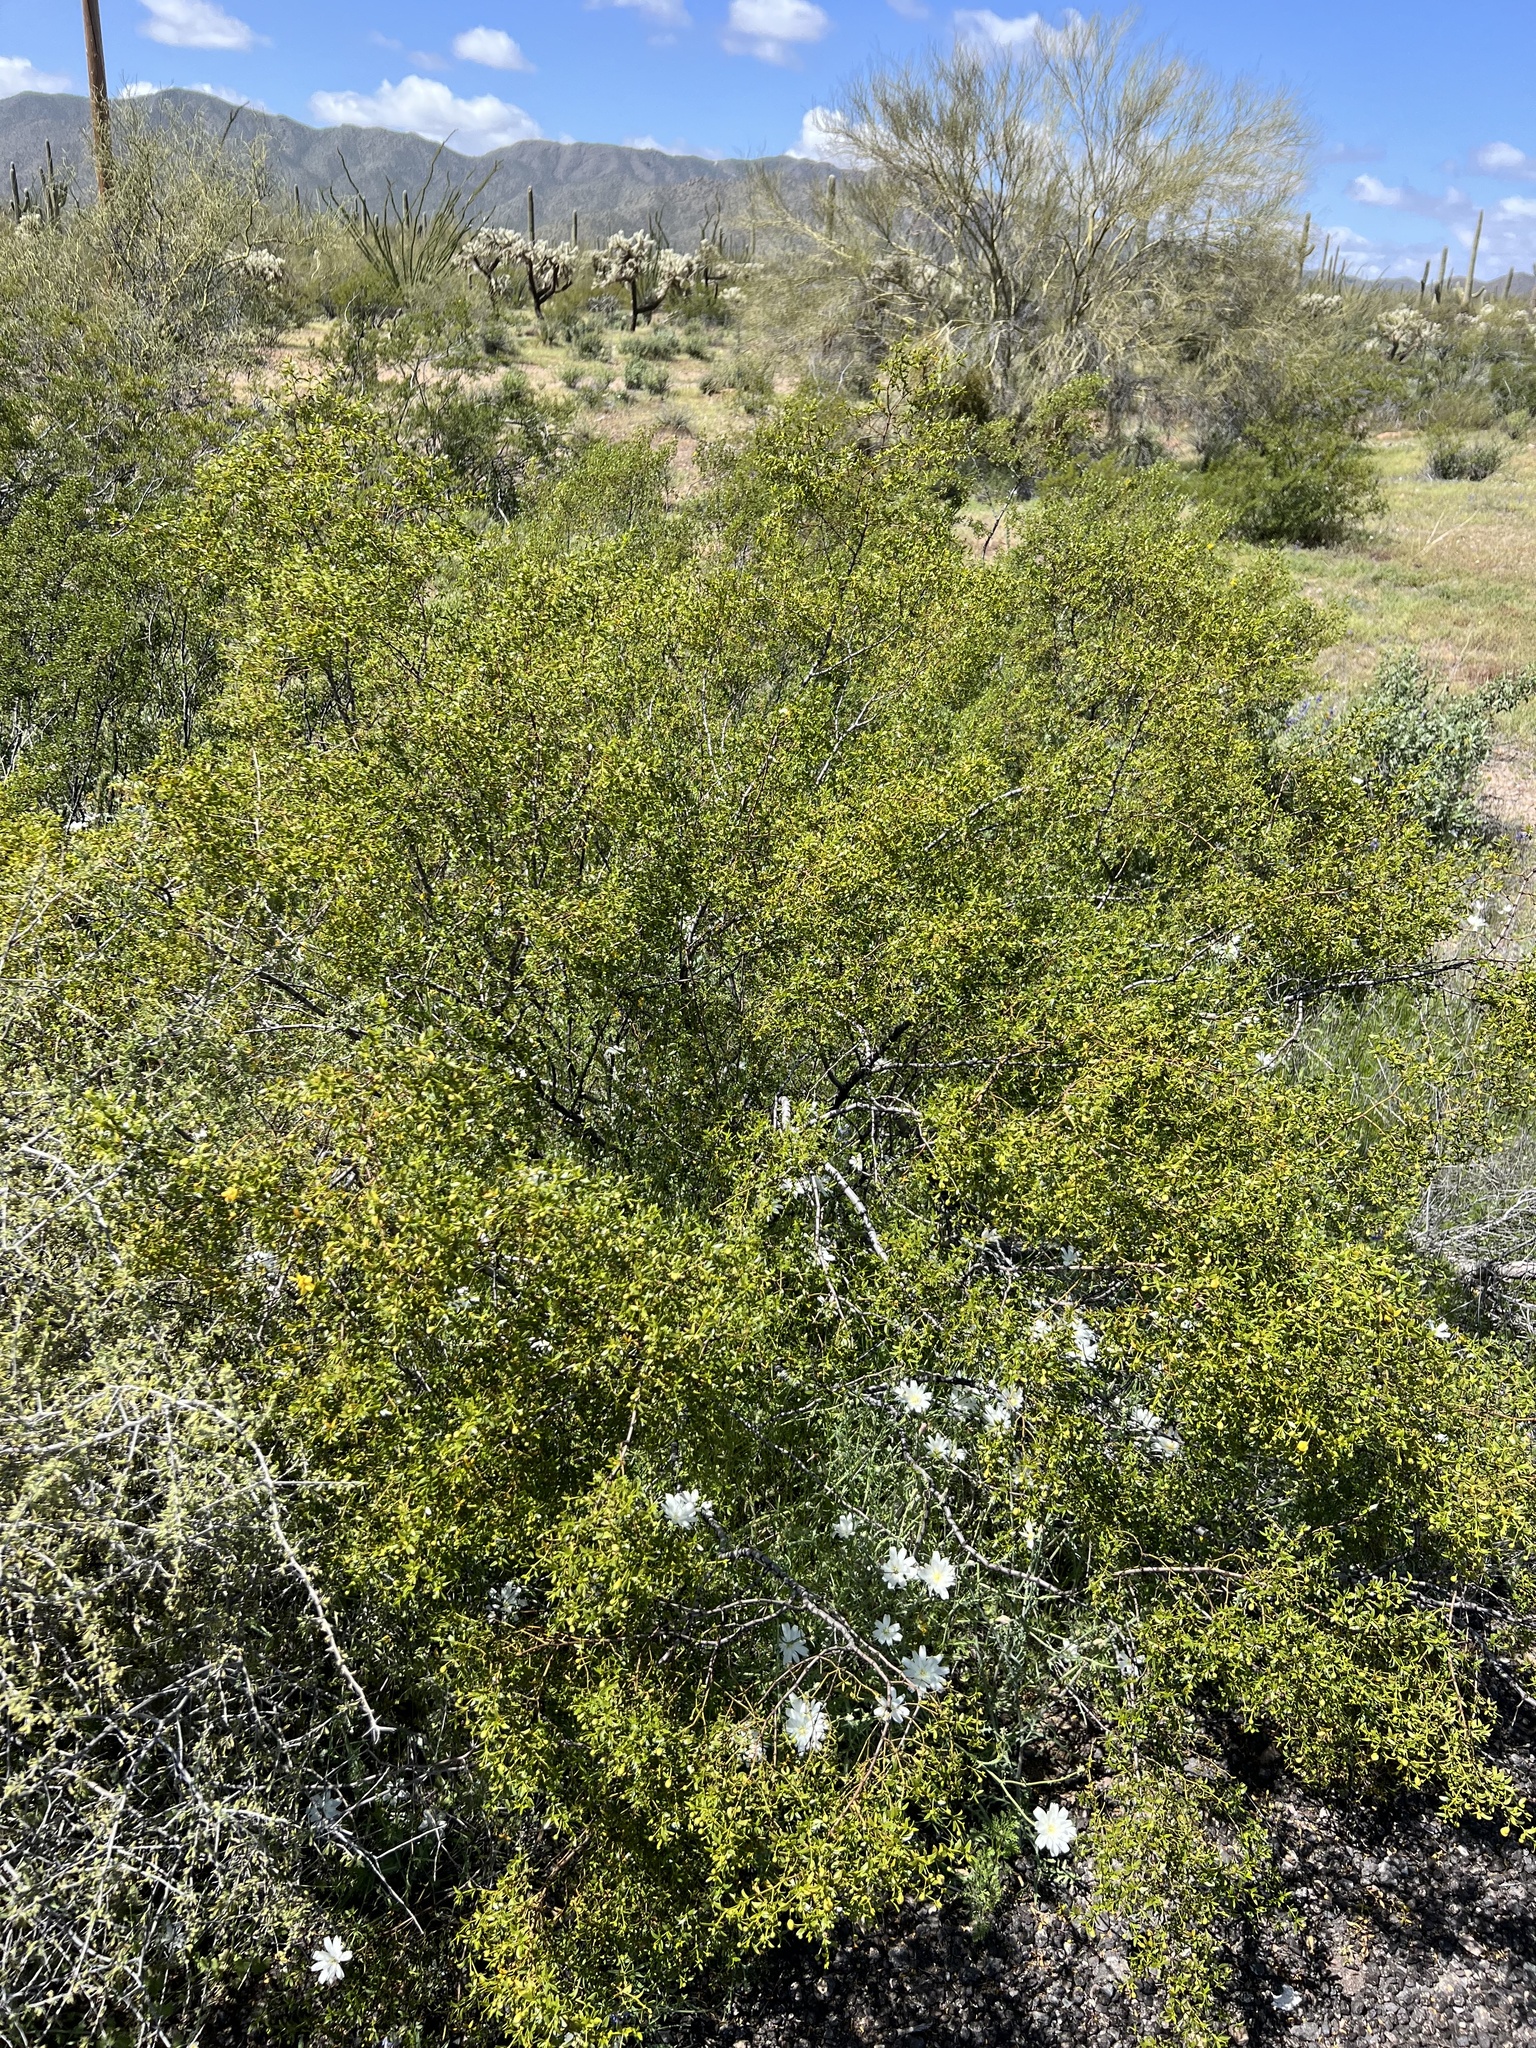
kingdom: Plantae
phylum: Tracheophyta
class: Magnoliopsida
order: Zygophyllales
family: Zygophyllaceae
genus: Larrea
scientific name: Larrea tridentata
